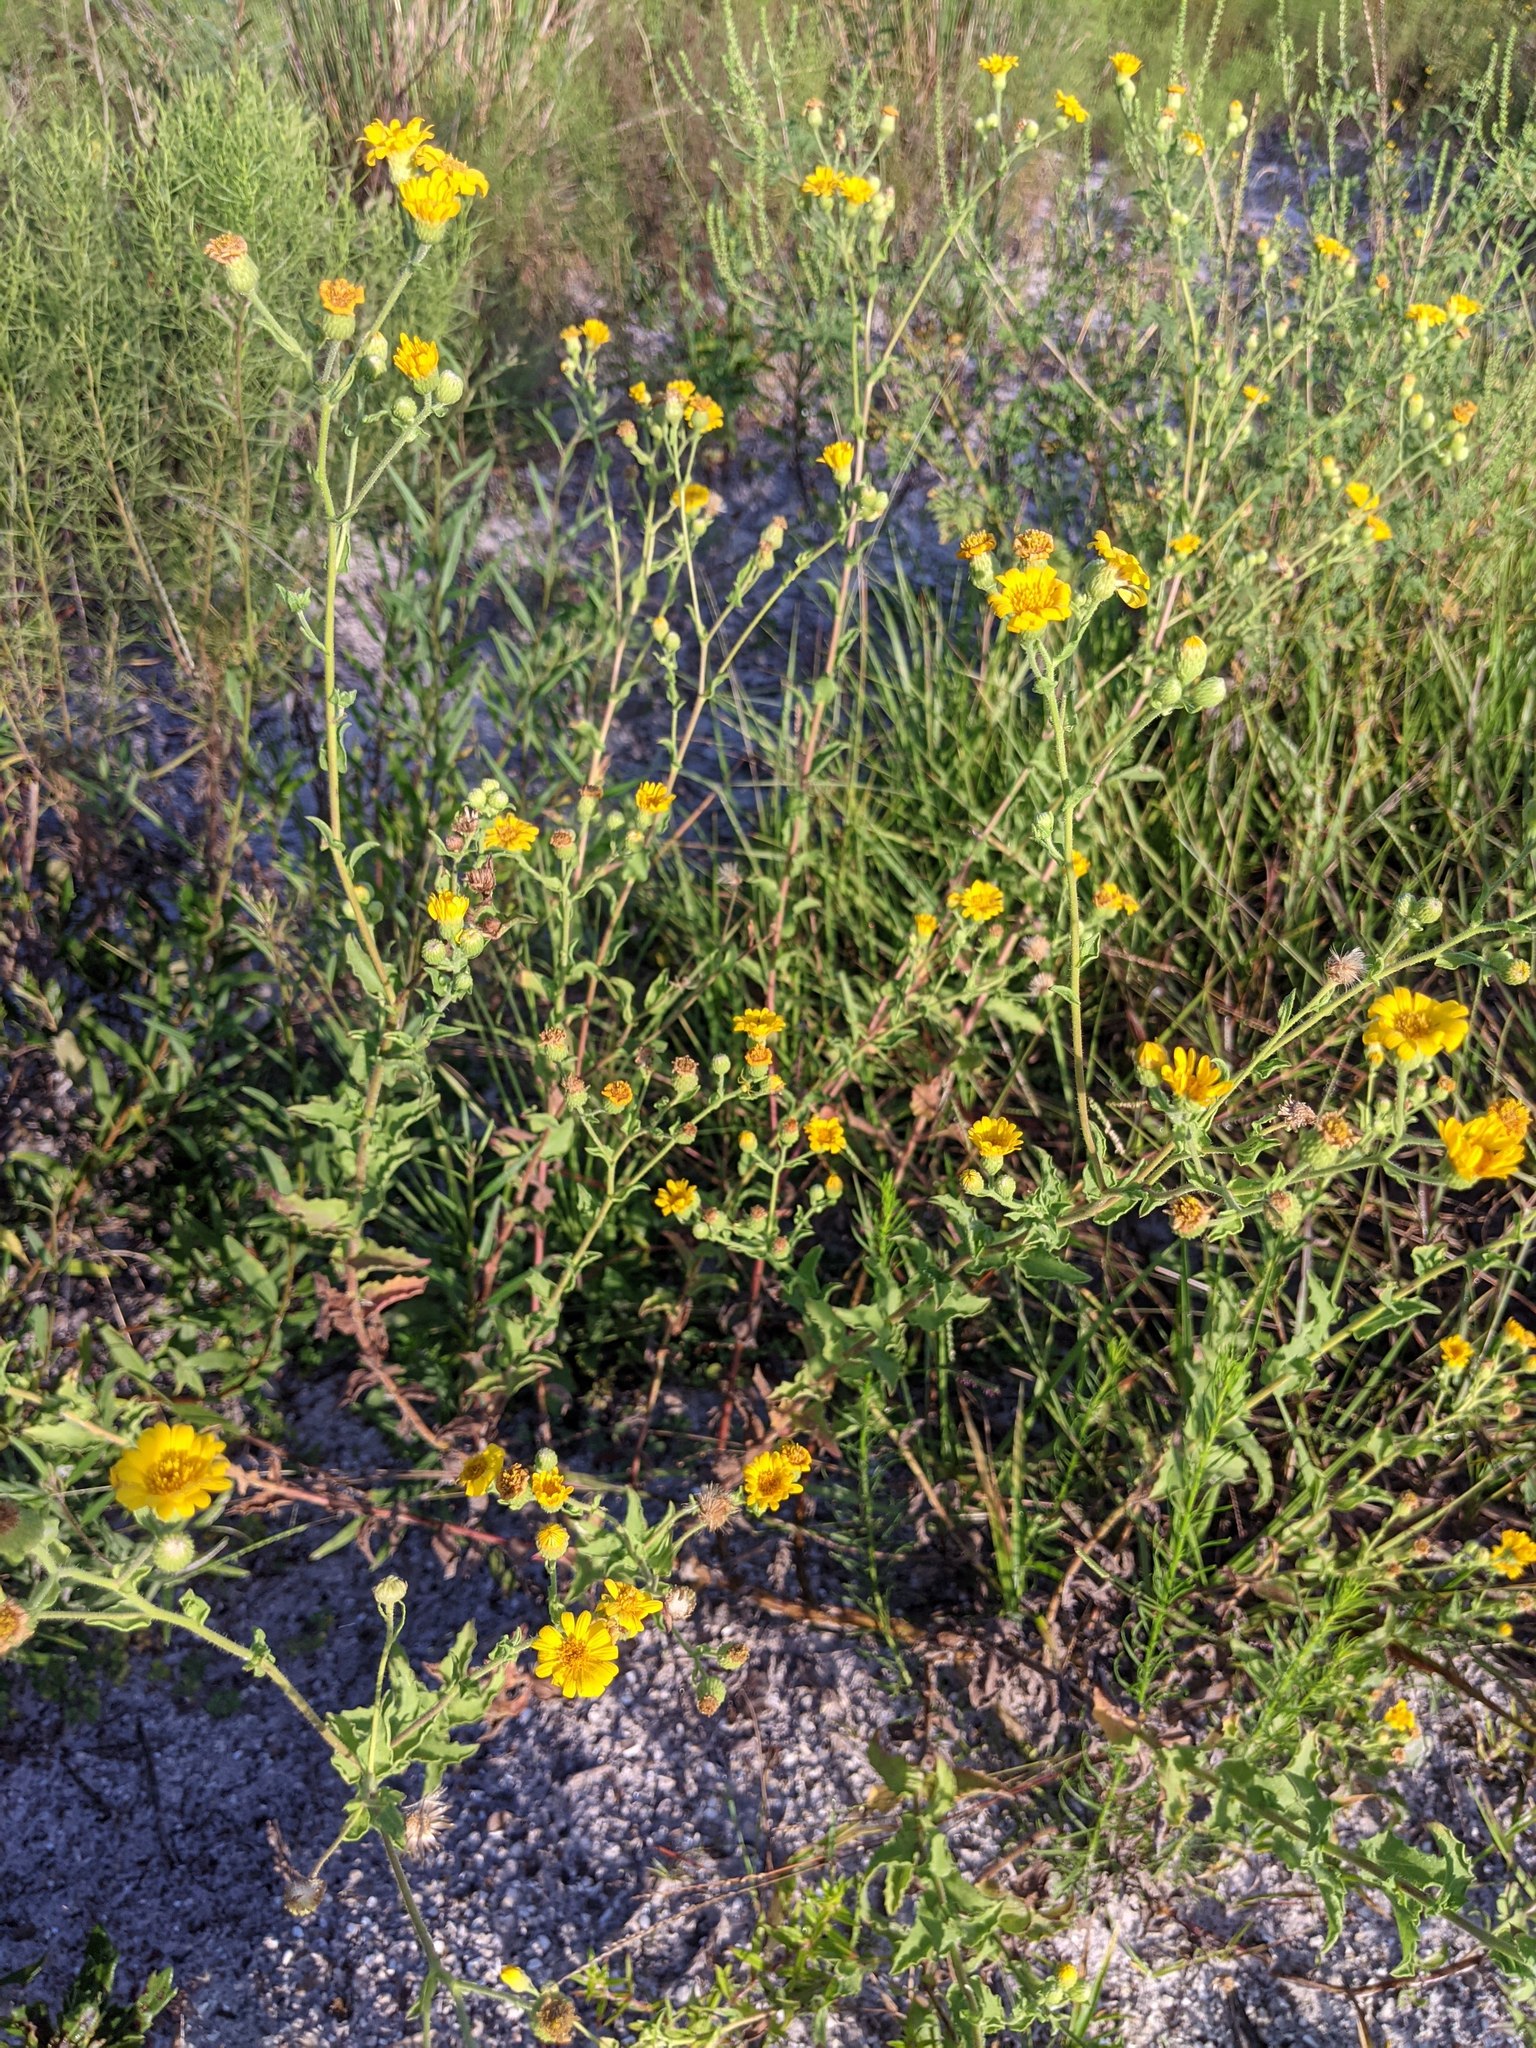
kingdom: Plantae
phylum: Tracheophyta
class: Magnoliopsida
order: Asterales
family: Asteraceae
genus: Heterotheca
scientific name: Heterotheca subaxillaris
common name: Camphorweed
